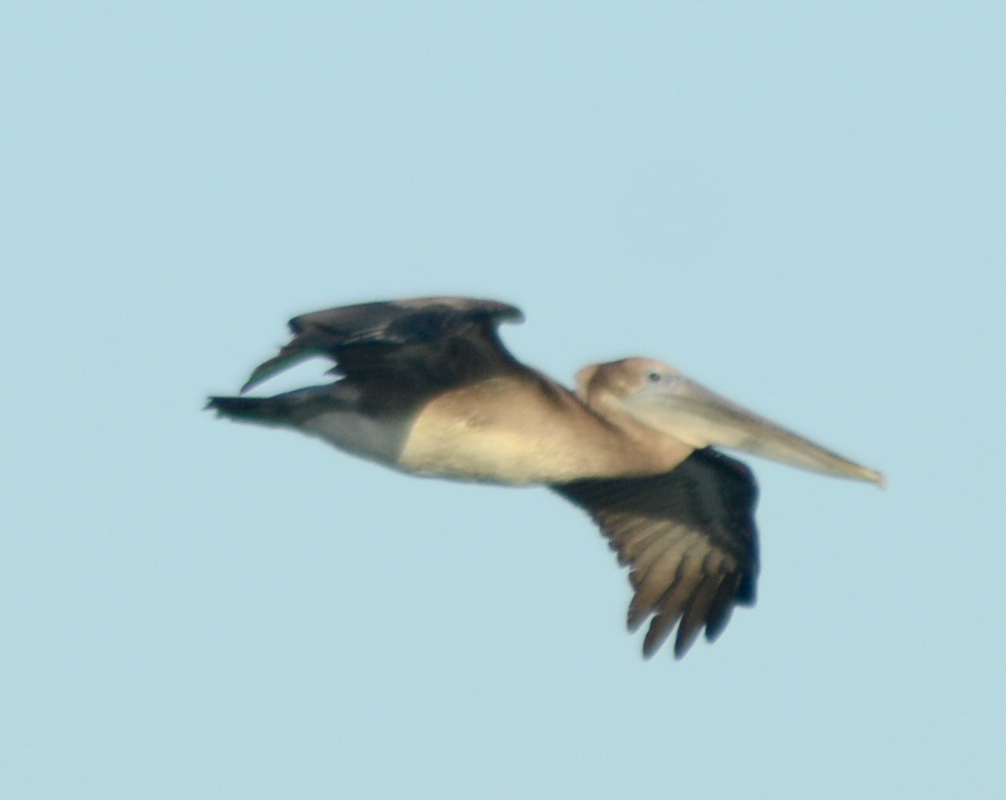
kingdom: Animalia
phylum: Chordata
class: Aves
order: Pelecaniformes
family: Pelecanidae
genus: Pelecanus
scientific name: Pelecanus occidentalis
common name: Brown pelican
